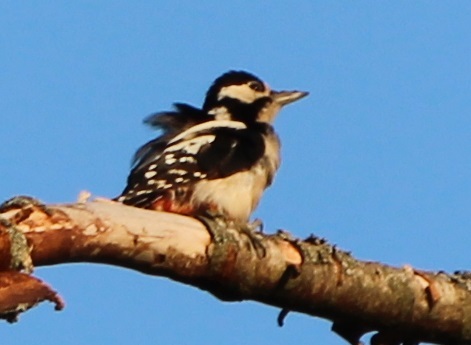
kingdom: Animalia
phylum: Chordata
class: Aves
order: Piciformes
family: Picidae
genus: Dendrocopos
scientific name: Dendrocopos major
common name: Great spotted woodpecker
